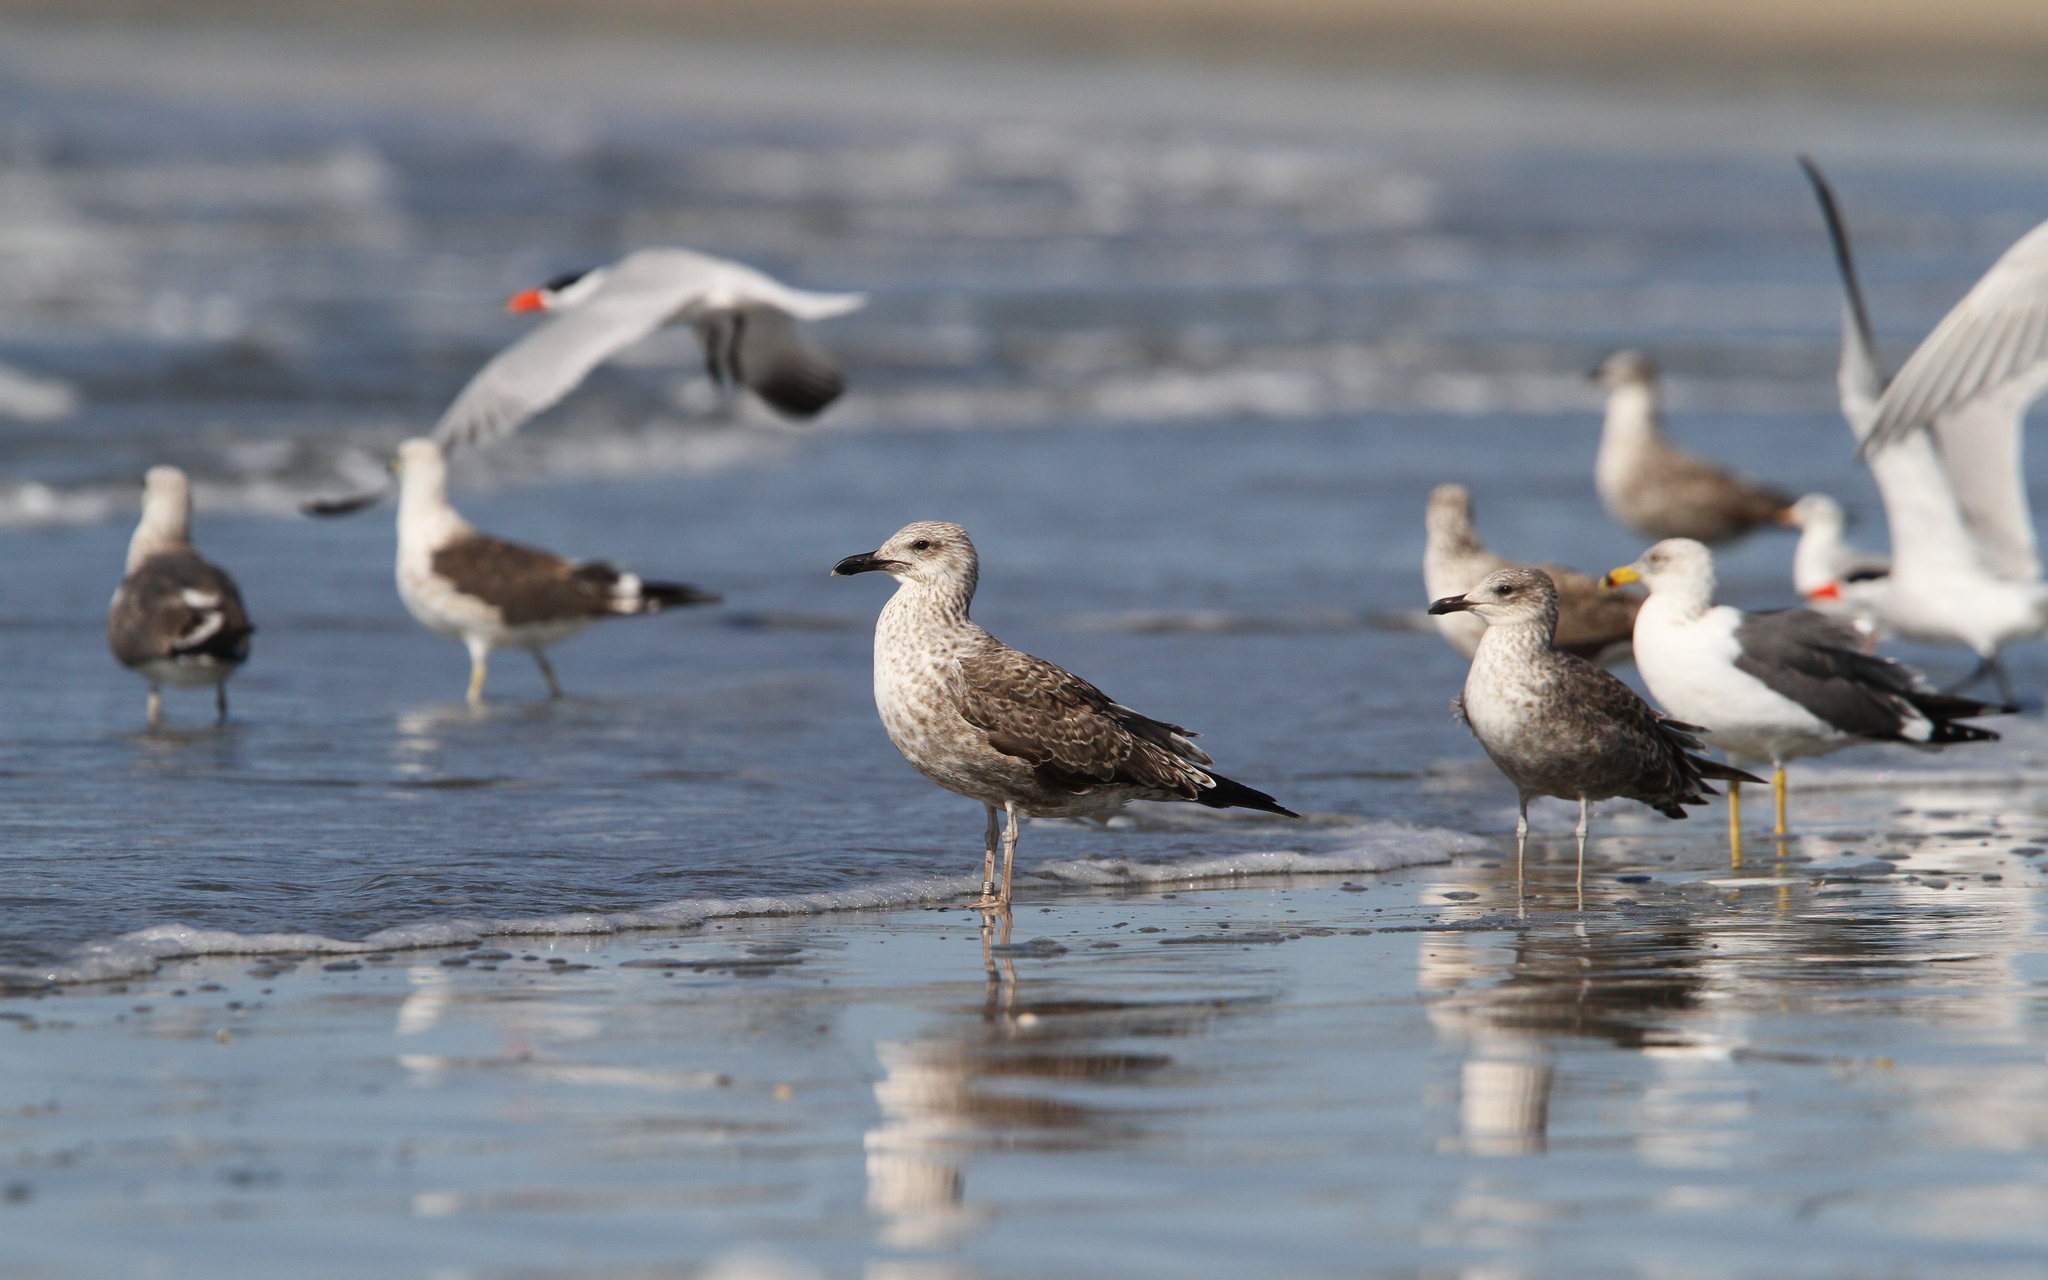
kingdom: Animalia
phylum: Chordata
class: Aves
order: Charadriiformes
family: Laridae
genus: Larus
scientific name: Larus dominicanus
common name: Kelp gull
